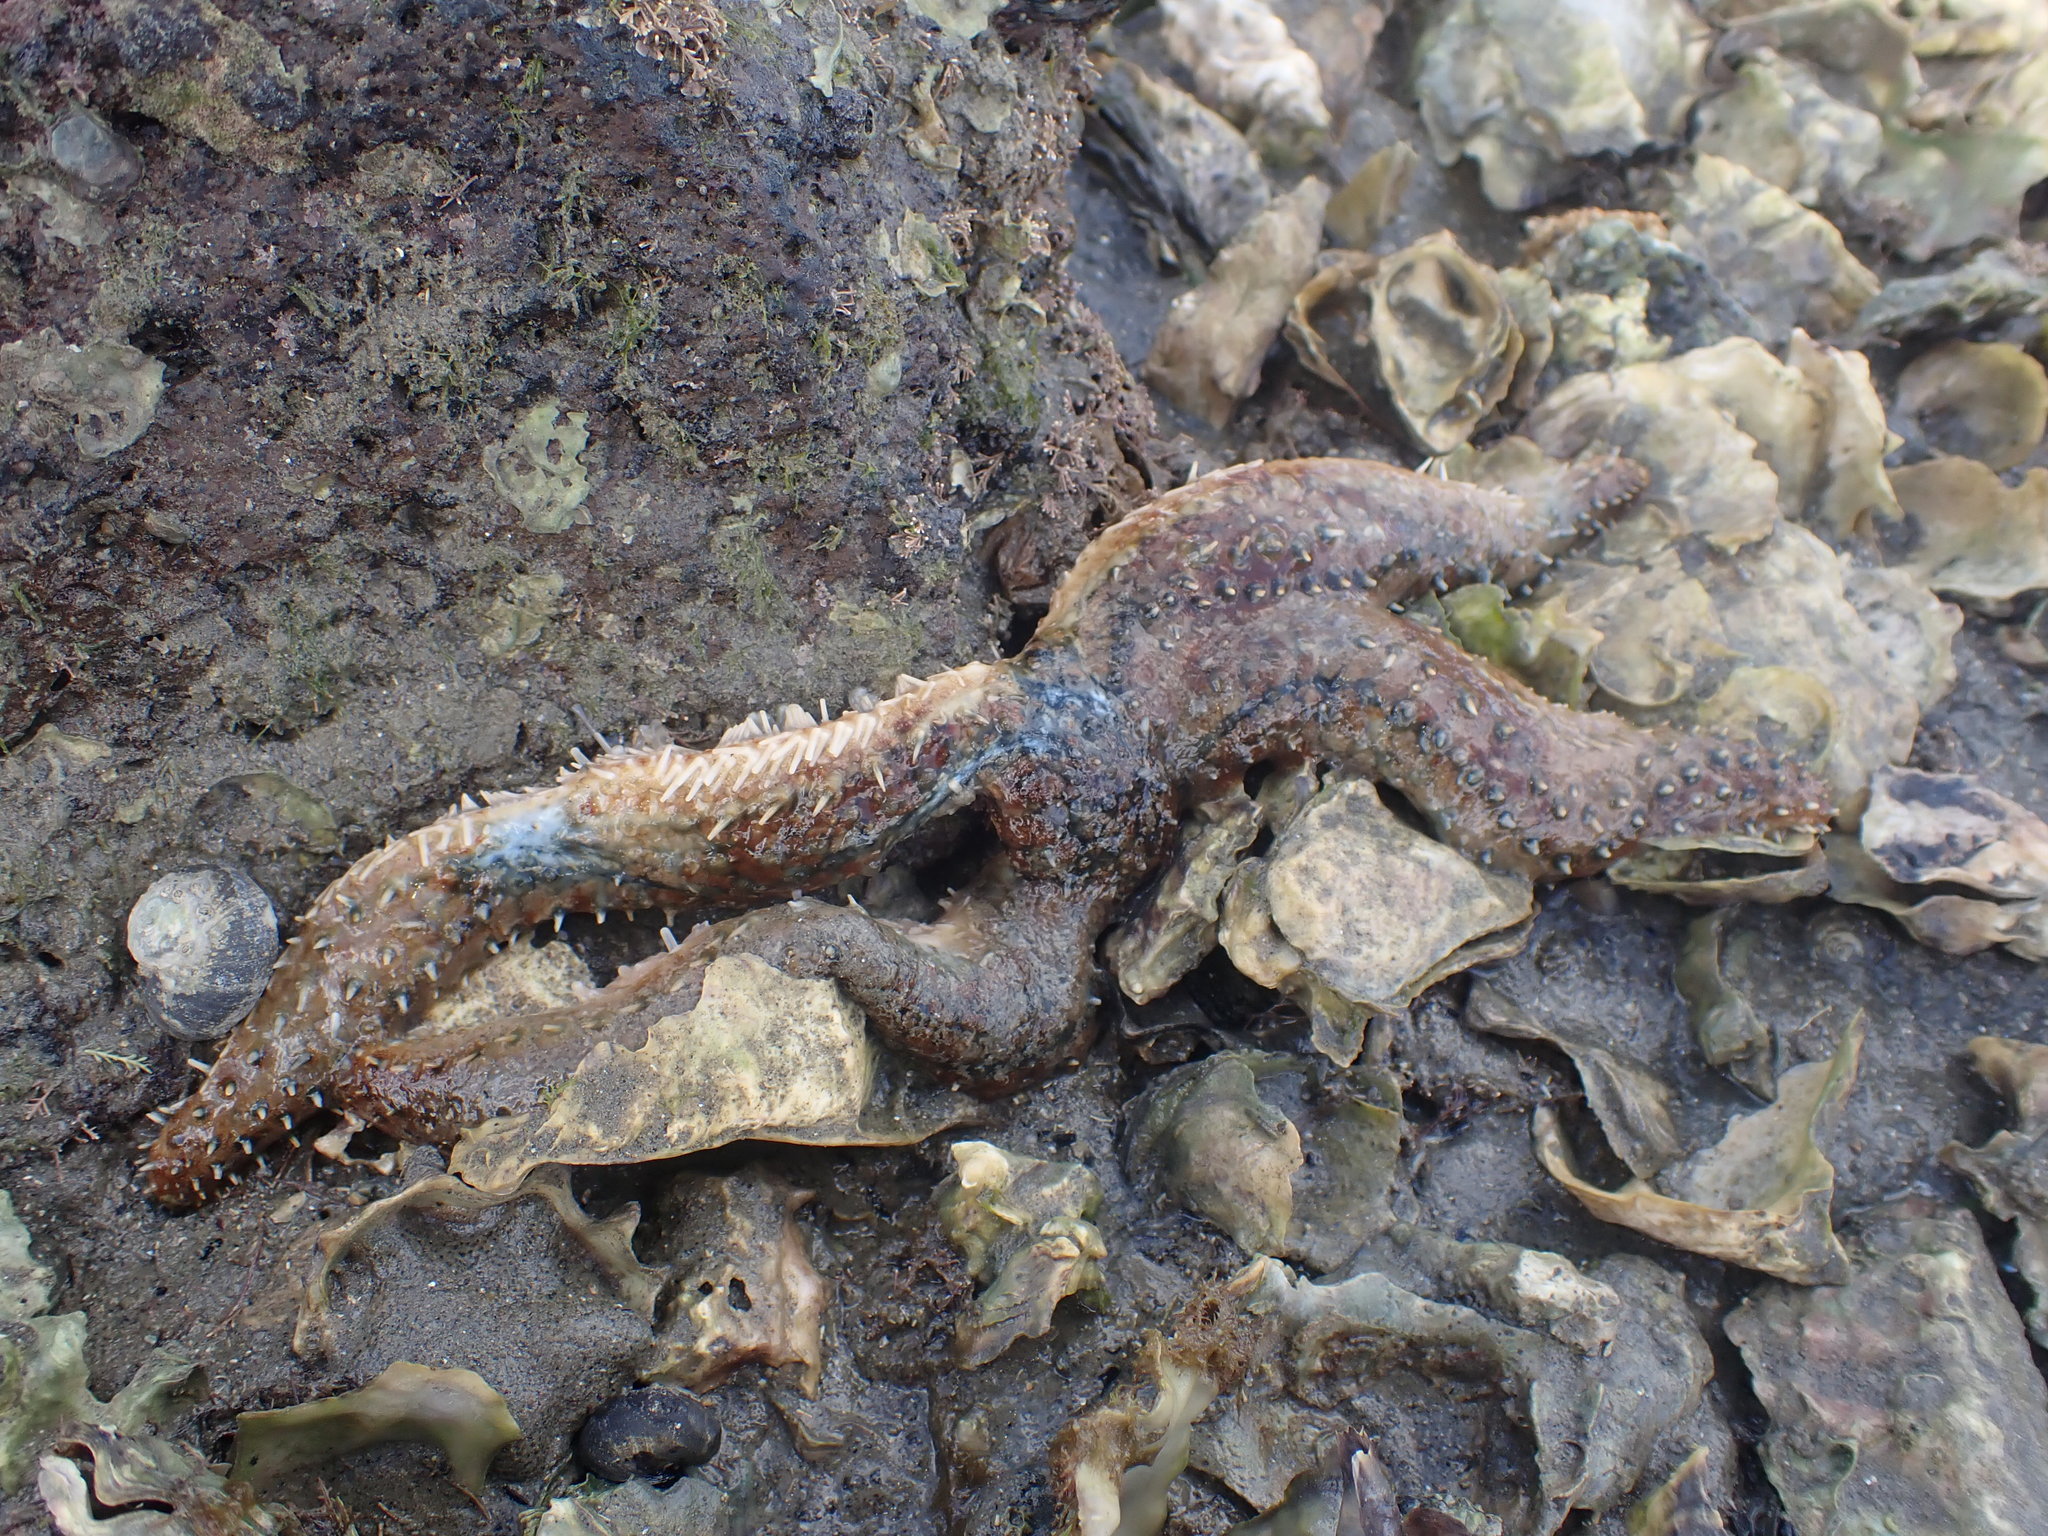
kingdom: Animalia
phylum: Echinodermata
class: Asteroidea
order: Forcipulatida
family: Asteriidae
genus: Coscinasterias
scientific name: Coscinasterias muricata
